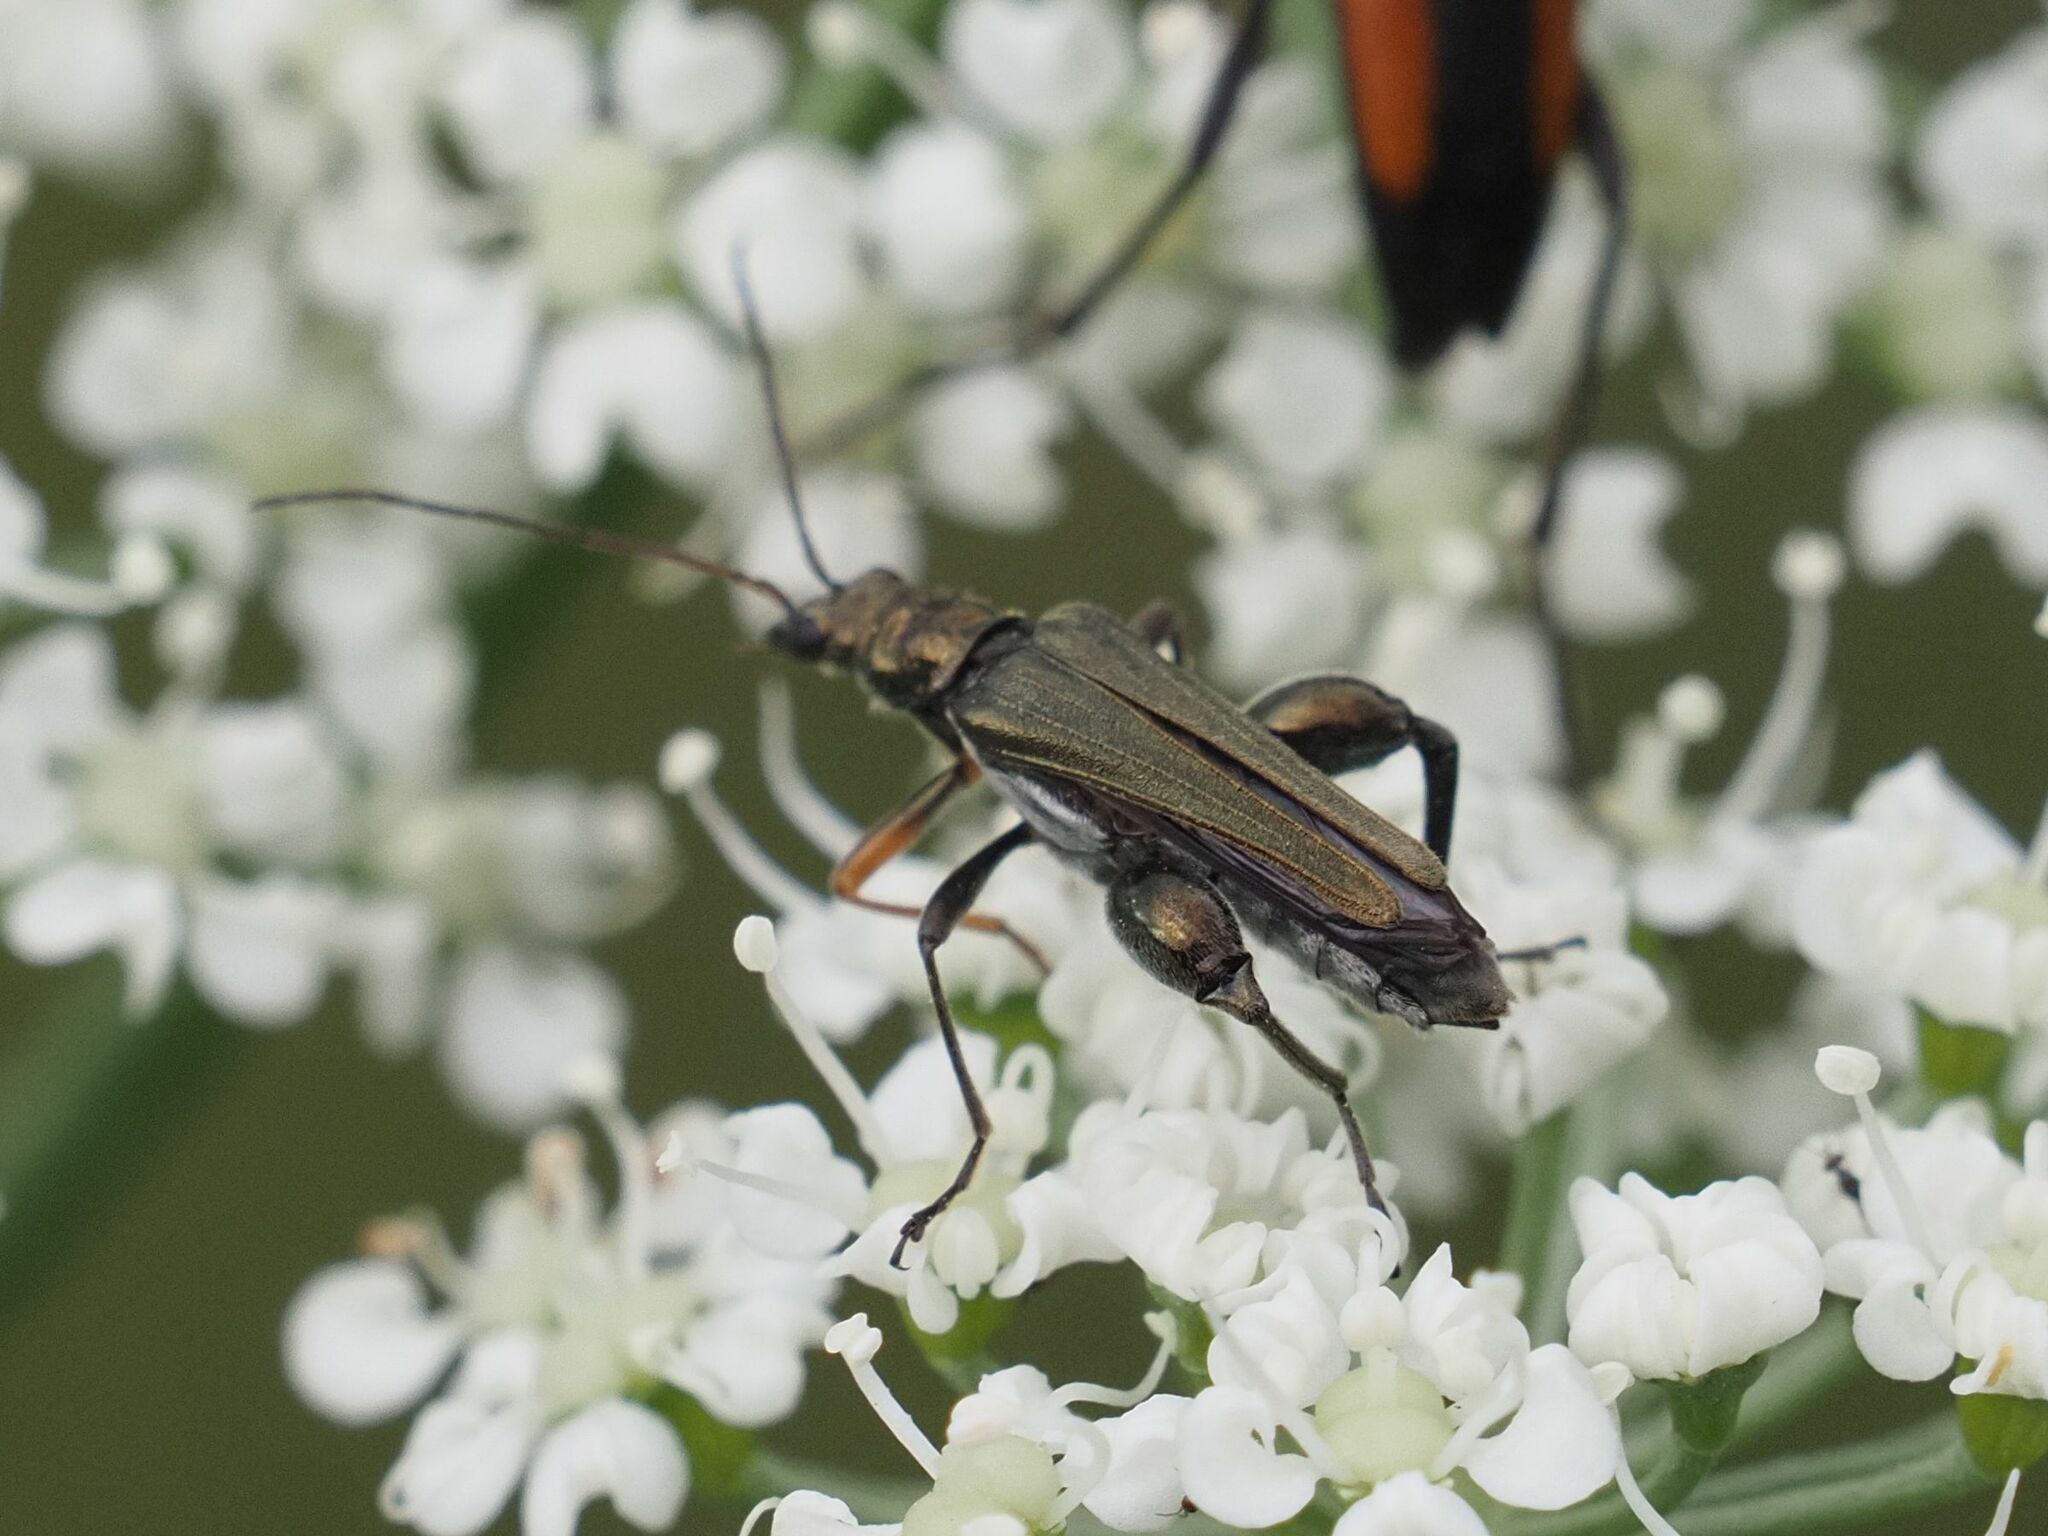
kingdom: Animalia
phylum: Arthropoda
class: Insecta
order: Coleoptera
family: Oedemeridae
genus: Oedemera
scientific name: Oedemera flavipes
